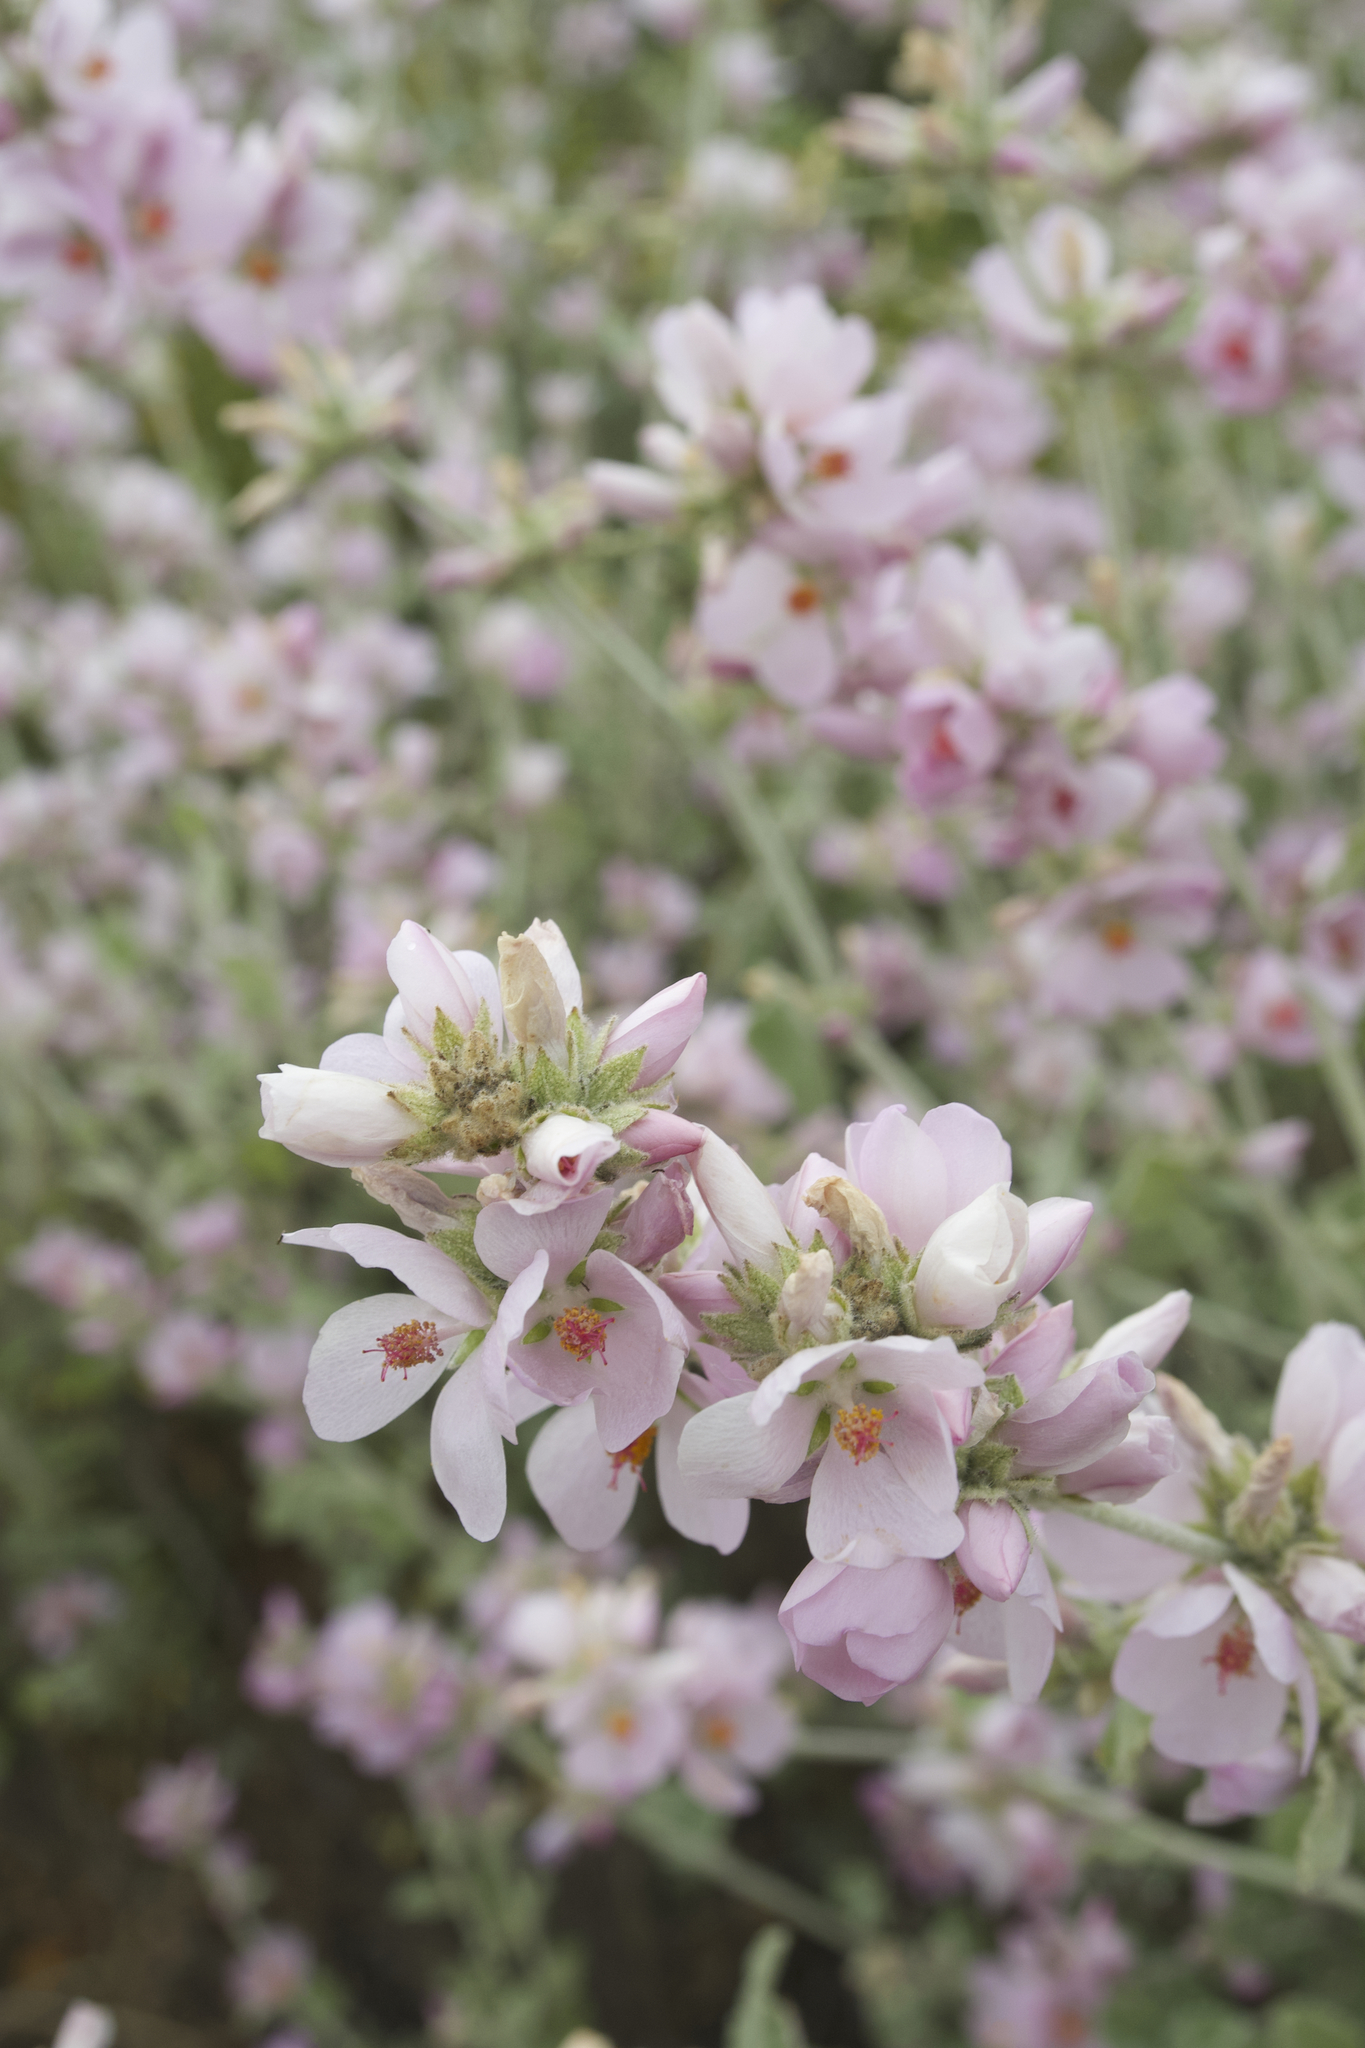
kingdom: Plantae
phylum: Tracheophyta
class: Magnoliopsida
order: Malvales
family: Malvaceae
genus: Malacothamnus
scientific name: Malacothamnus fasciculatus
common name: Sant cruz island bush-mallow
